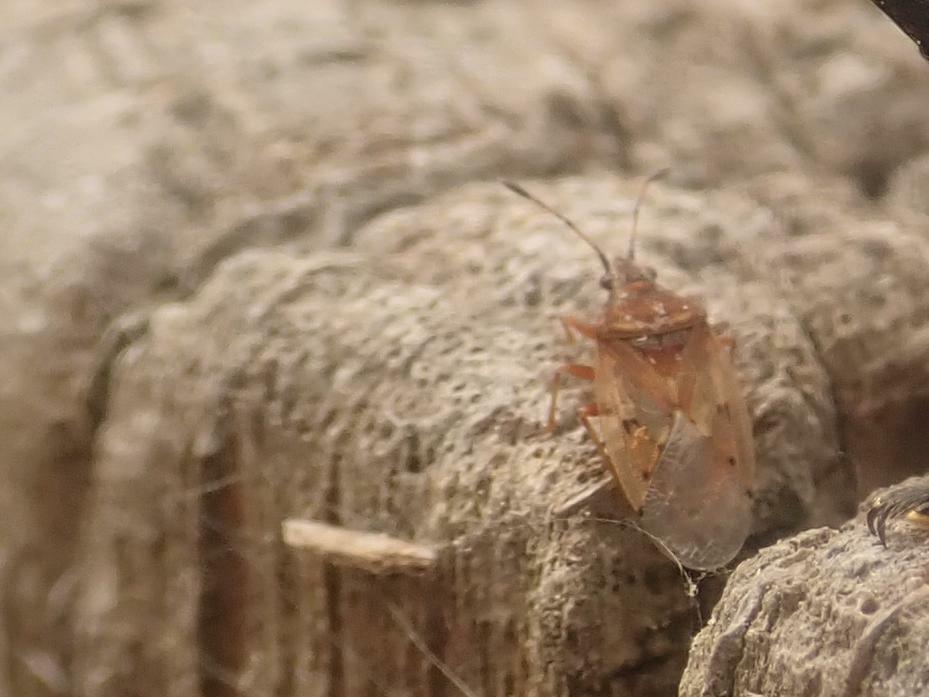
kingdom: Animalia
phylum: Arthropoda
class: Insecta
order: Hemiptera
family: Lygaeidae
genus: Kleidocerys
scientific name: Kleidocerys resedae
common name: Birch catkin bug
